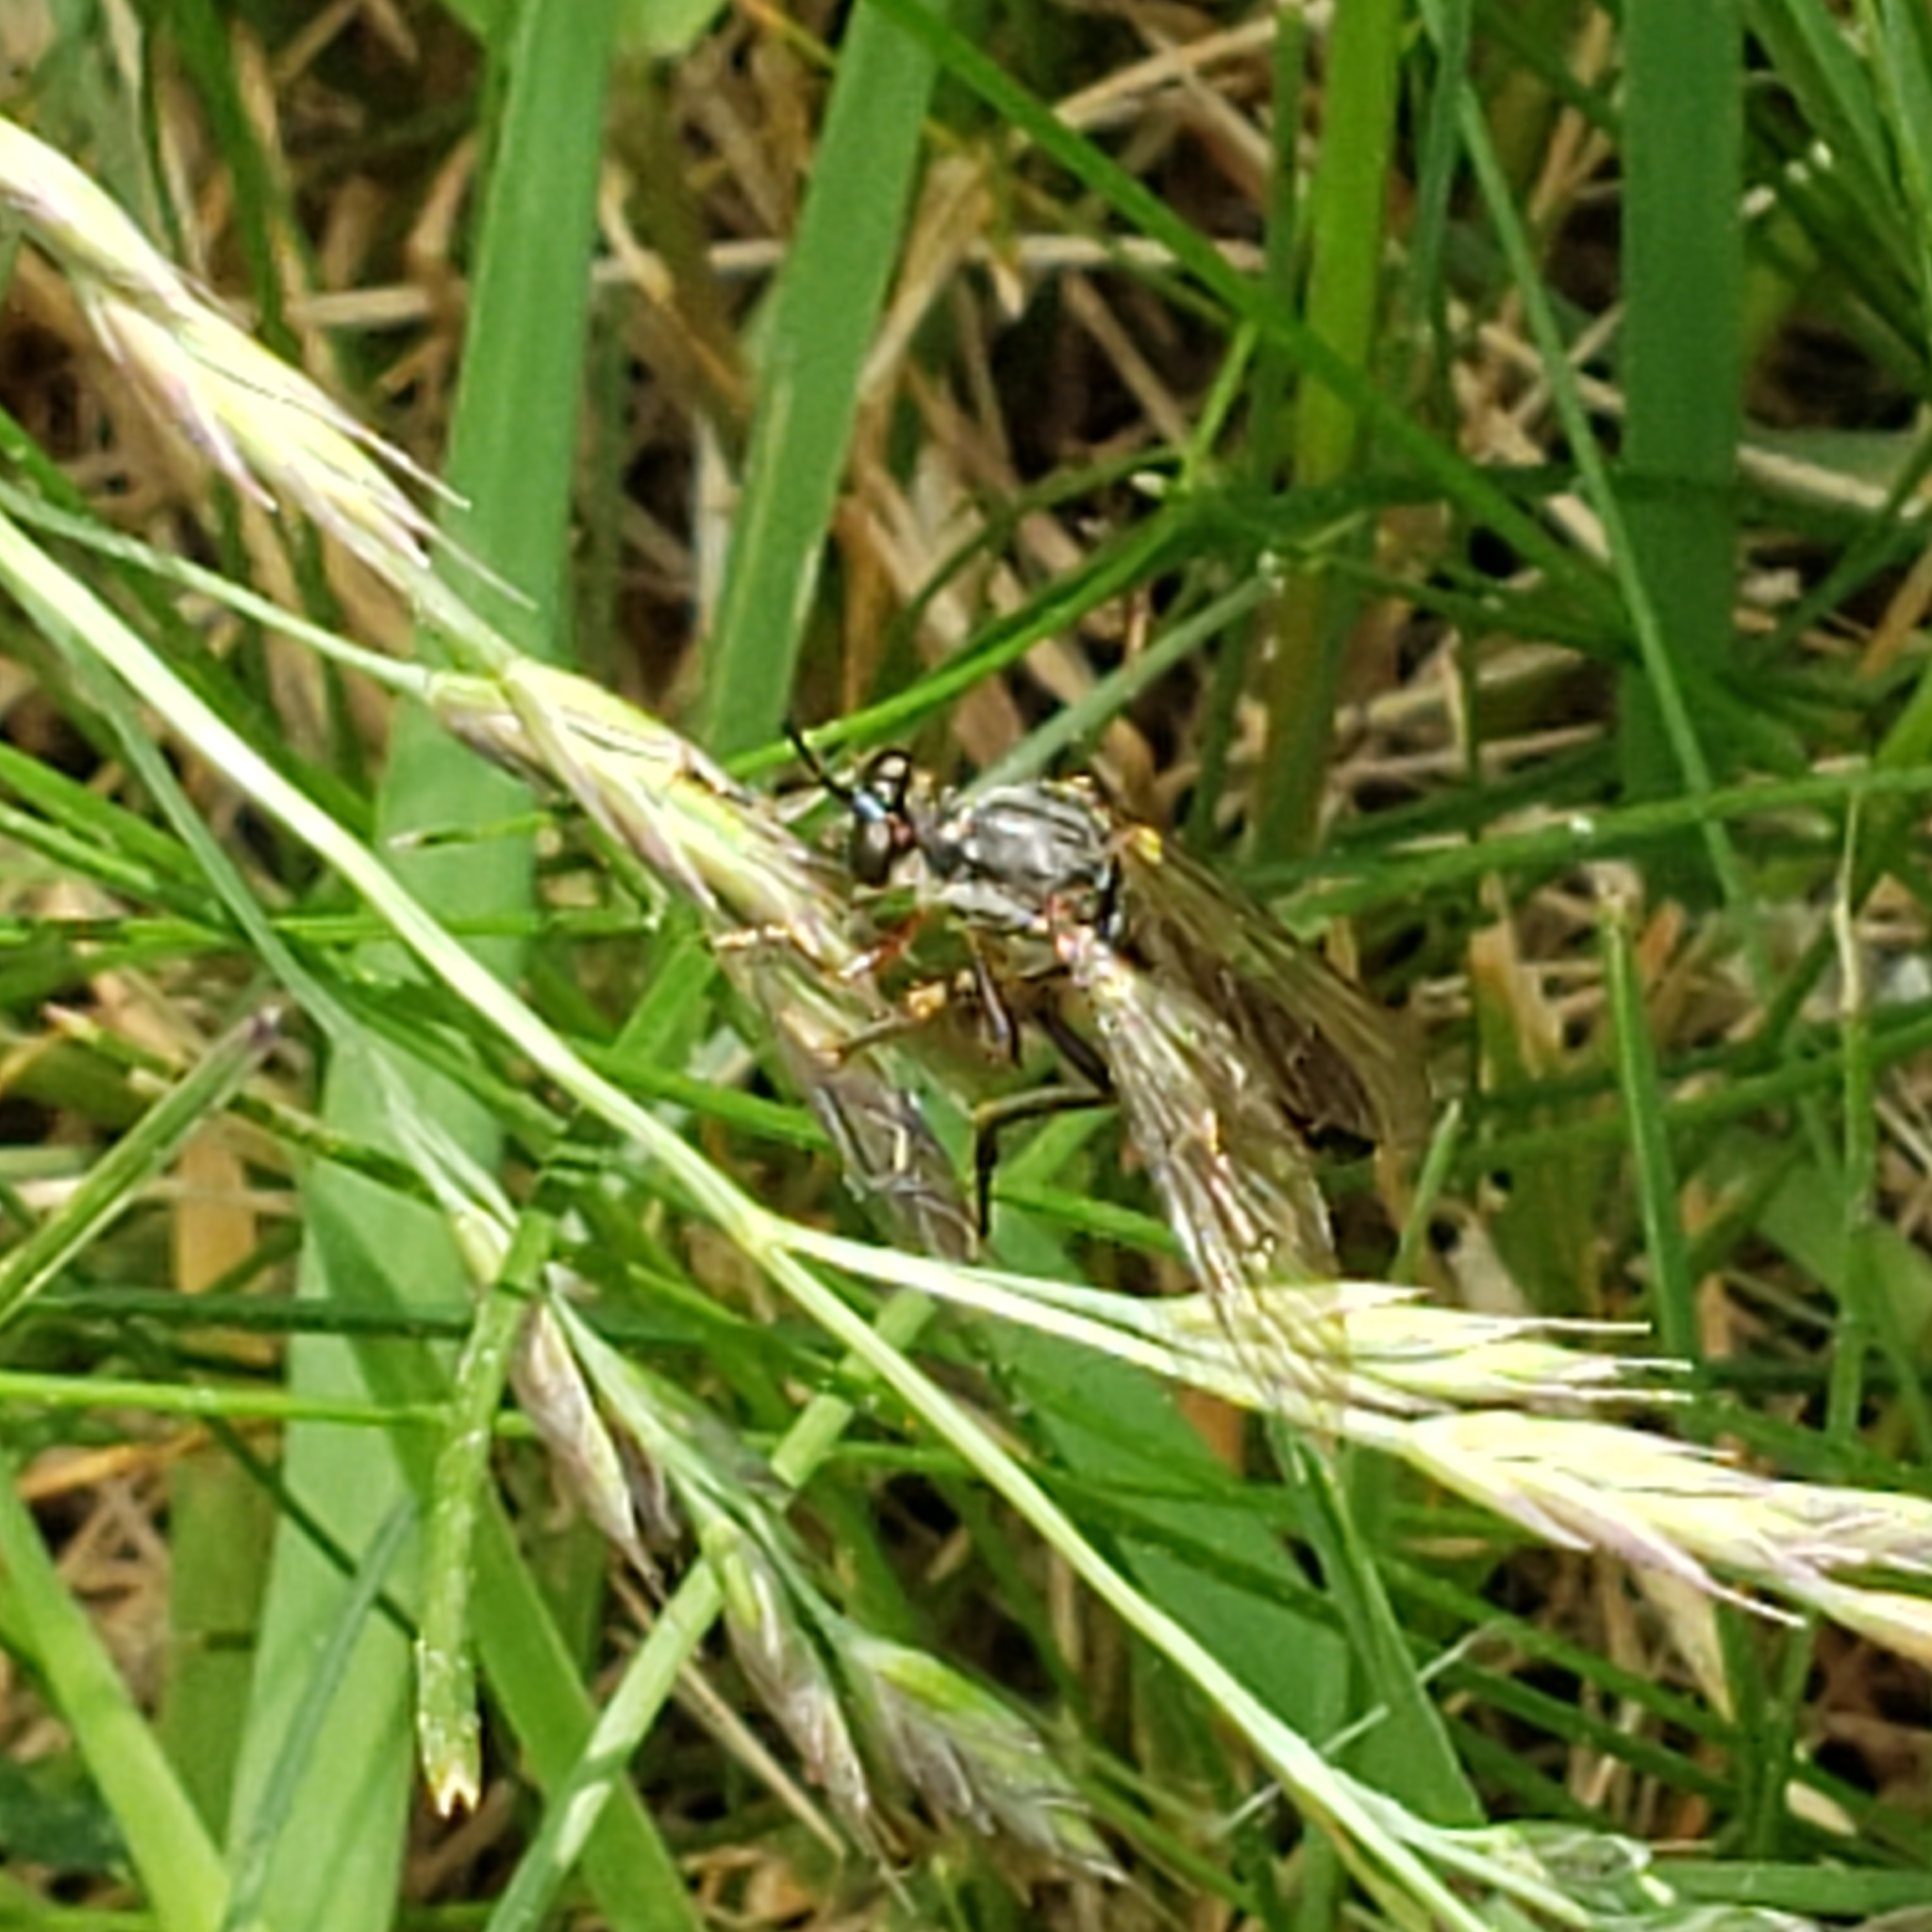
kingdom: Animalia
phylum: Arthropoda
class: Insecta
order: Diptera
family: Asilidae
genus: Dioctria
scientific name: Dioctria hyalipennis
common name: Stripe-legged robberfly
